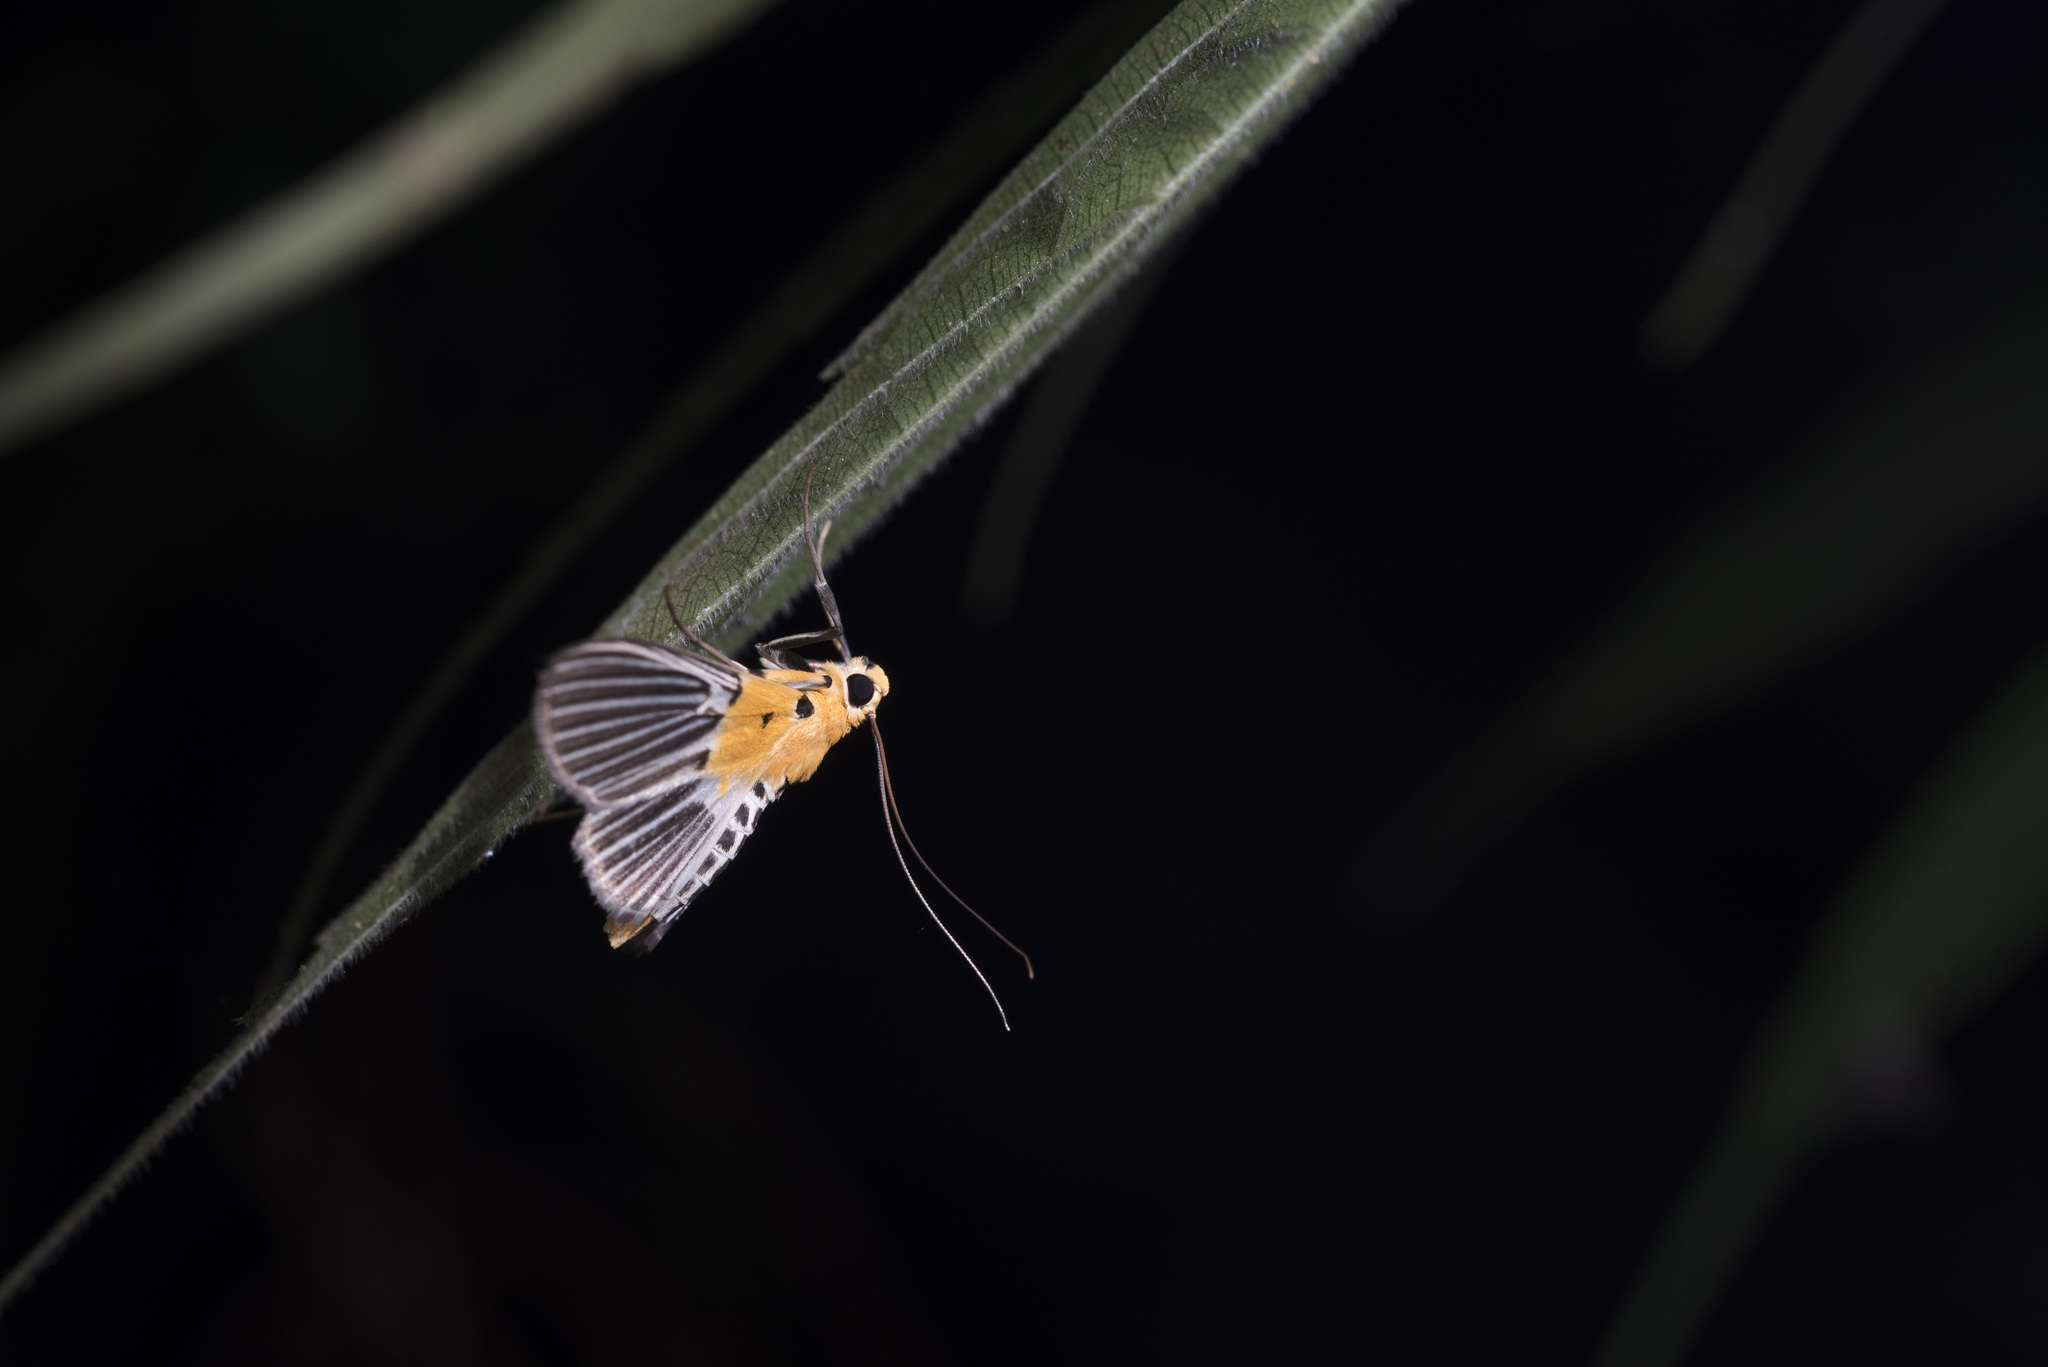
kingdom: Animalia
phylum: Arthropoda
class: Insecta
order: Lepidoptera
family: Crambidae
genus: Nevrina
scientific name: Nevrina procopia
